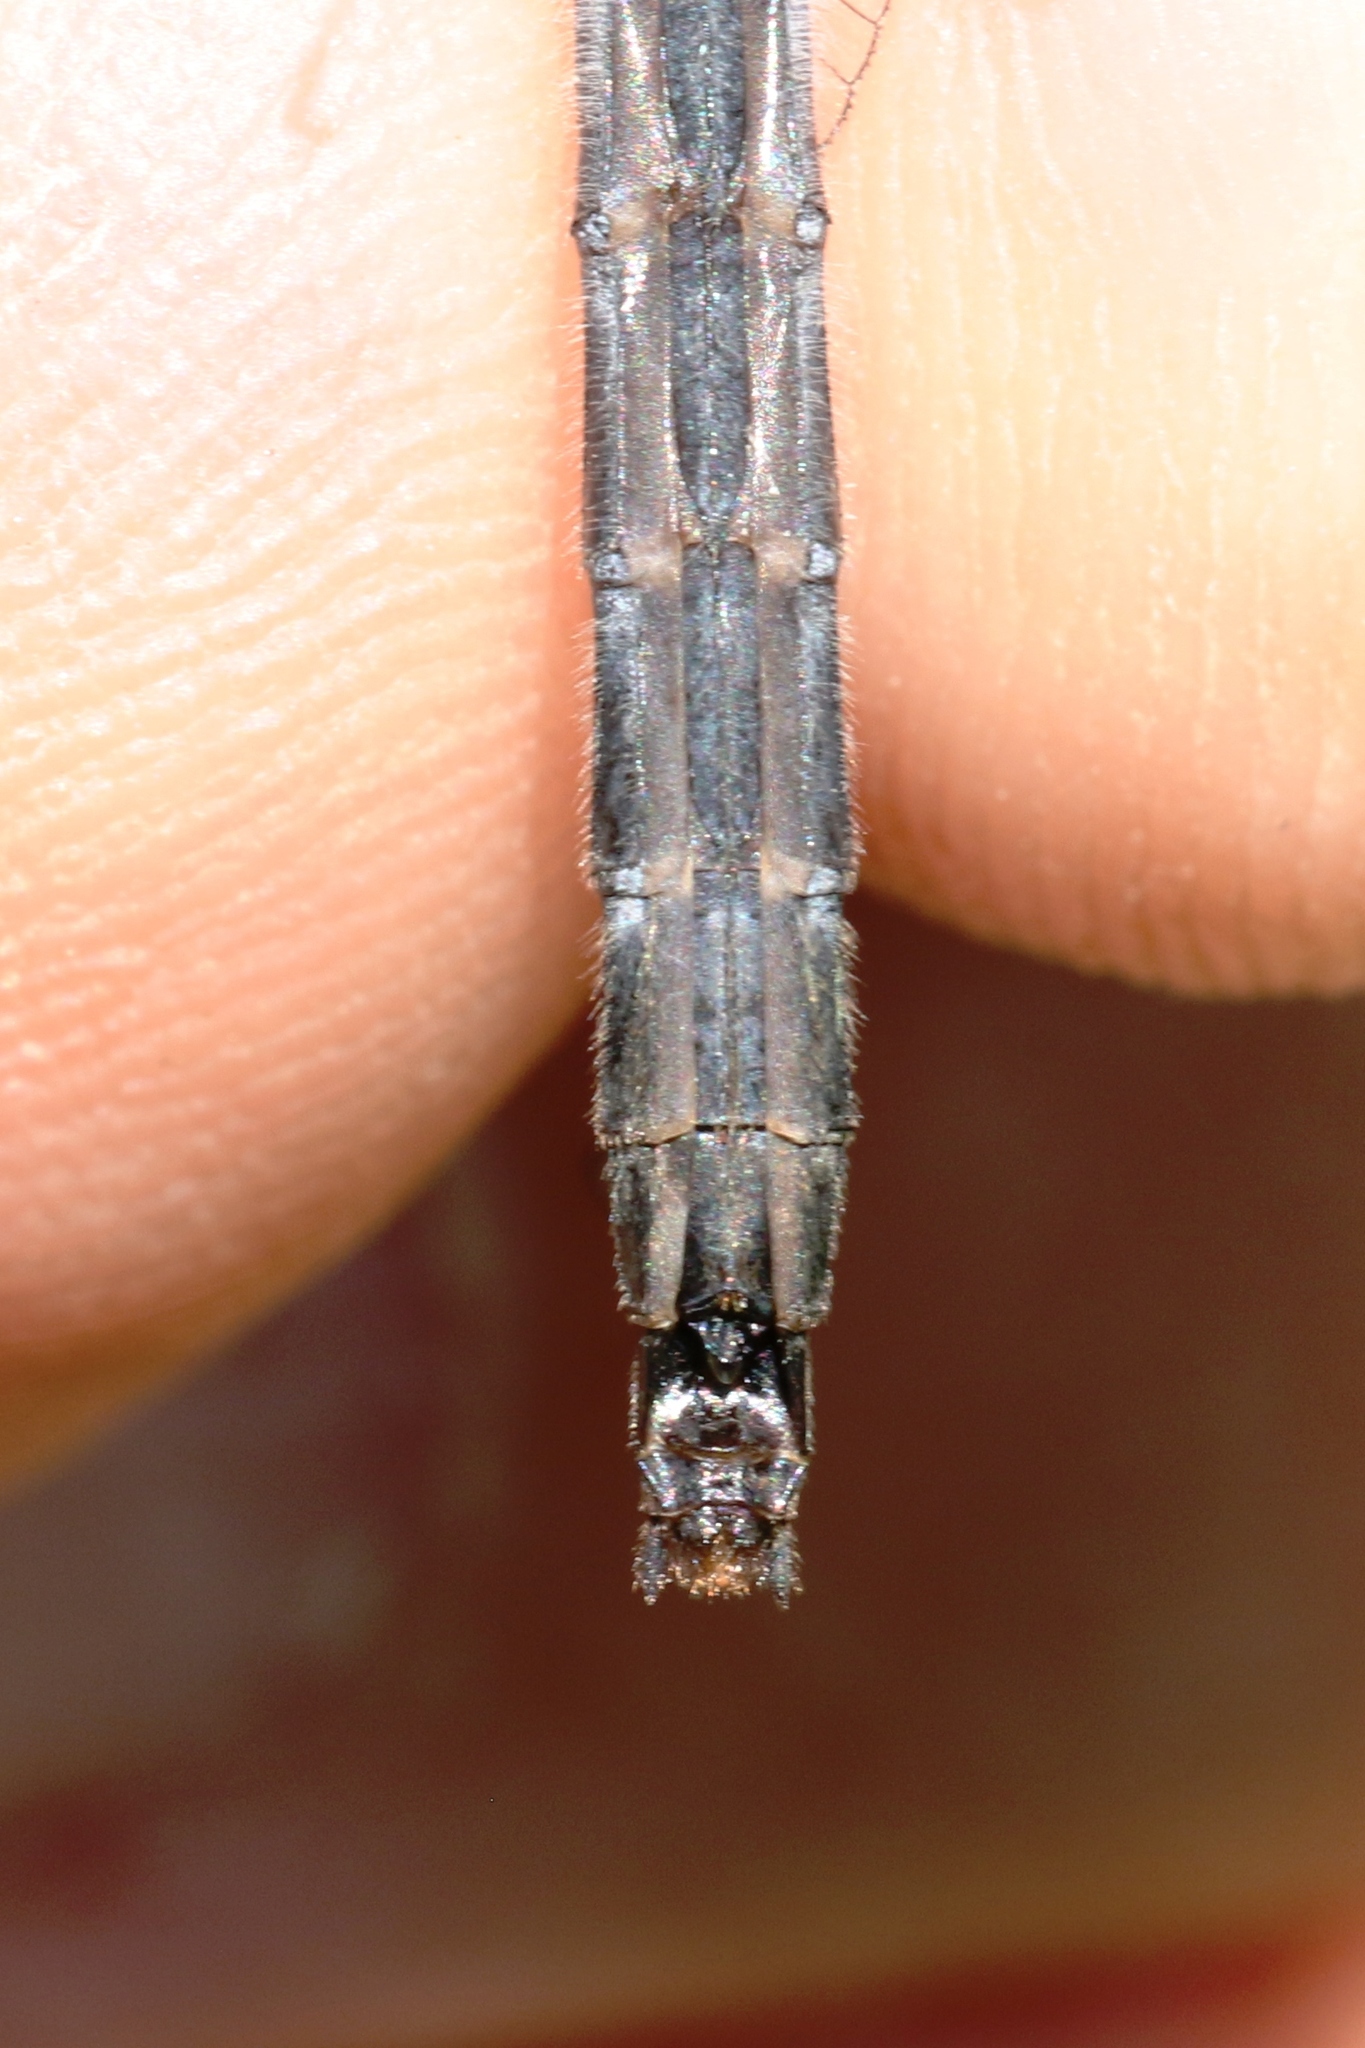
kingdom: Animalia
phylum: Arthropoda
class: Insecta
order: Odonata
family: Libellulidae
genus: Leucorrhinia
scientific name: Leucorrhinia hudsonica
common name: Hudsonian whiteface
